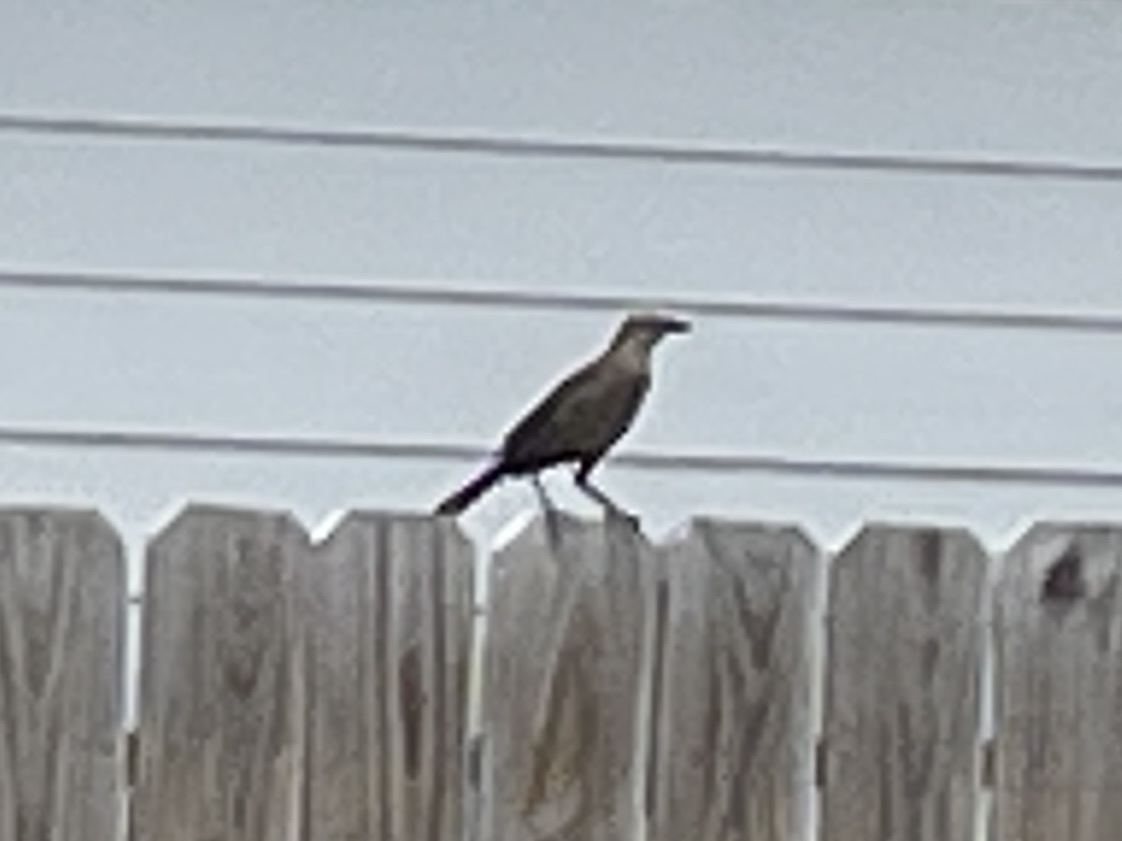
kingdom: Animalia
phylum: Chordata
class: Aves
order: Passeriformes
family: Icteridae
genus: Quiscalus
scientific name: Quiscalus mexicanus
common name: Great-tailed grackle
